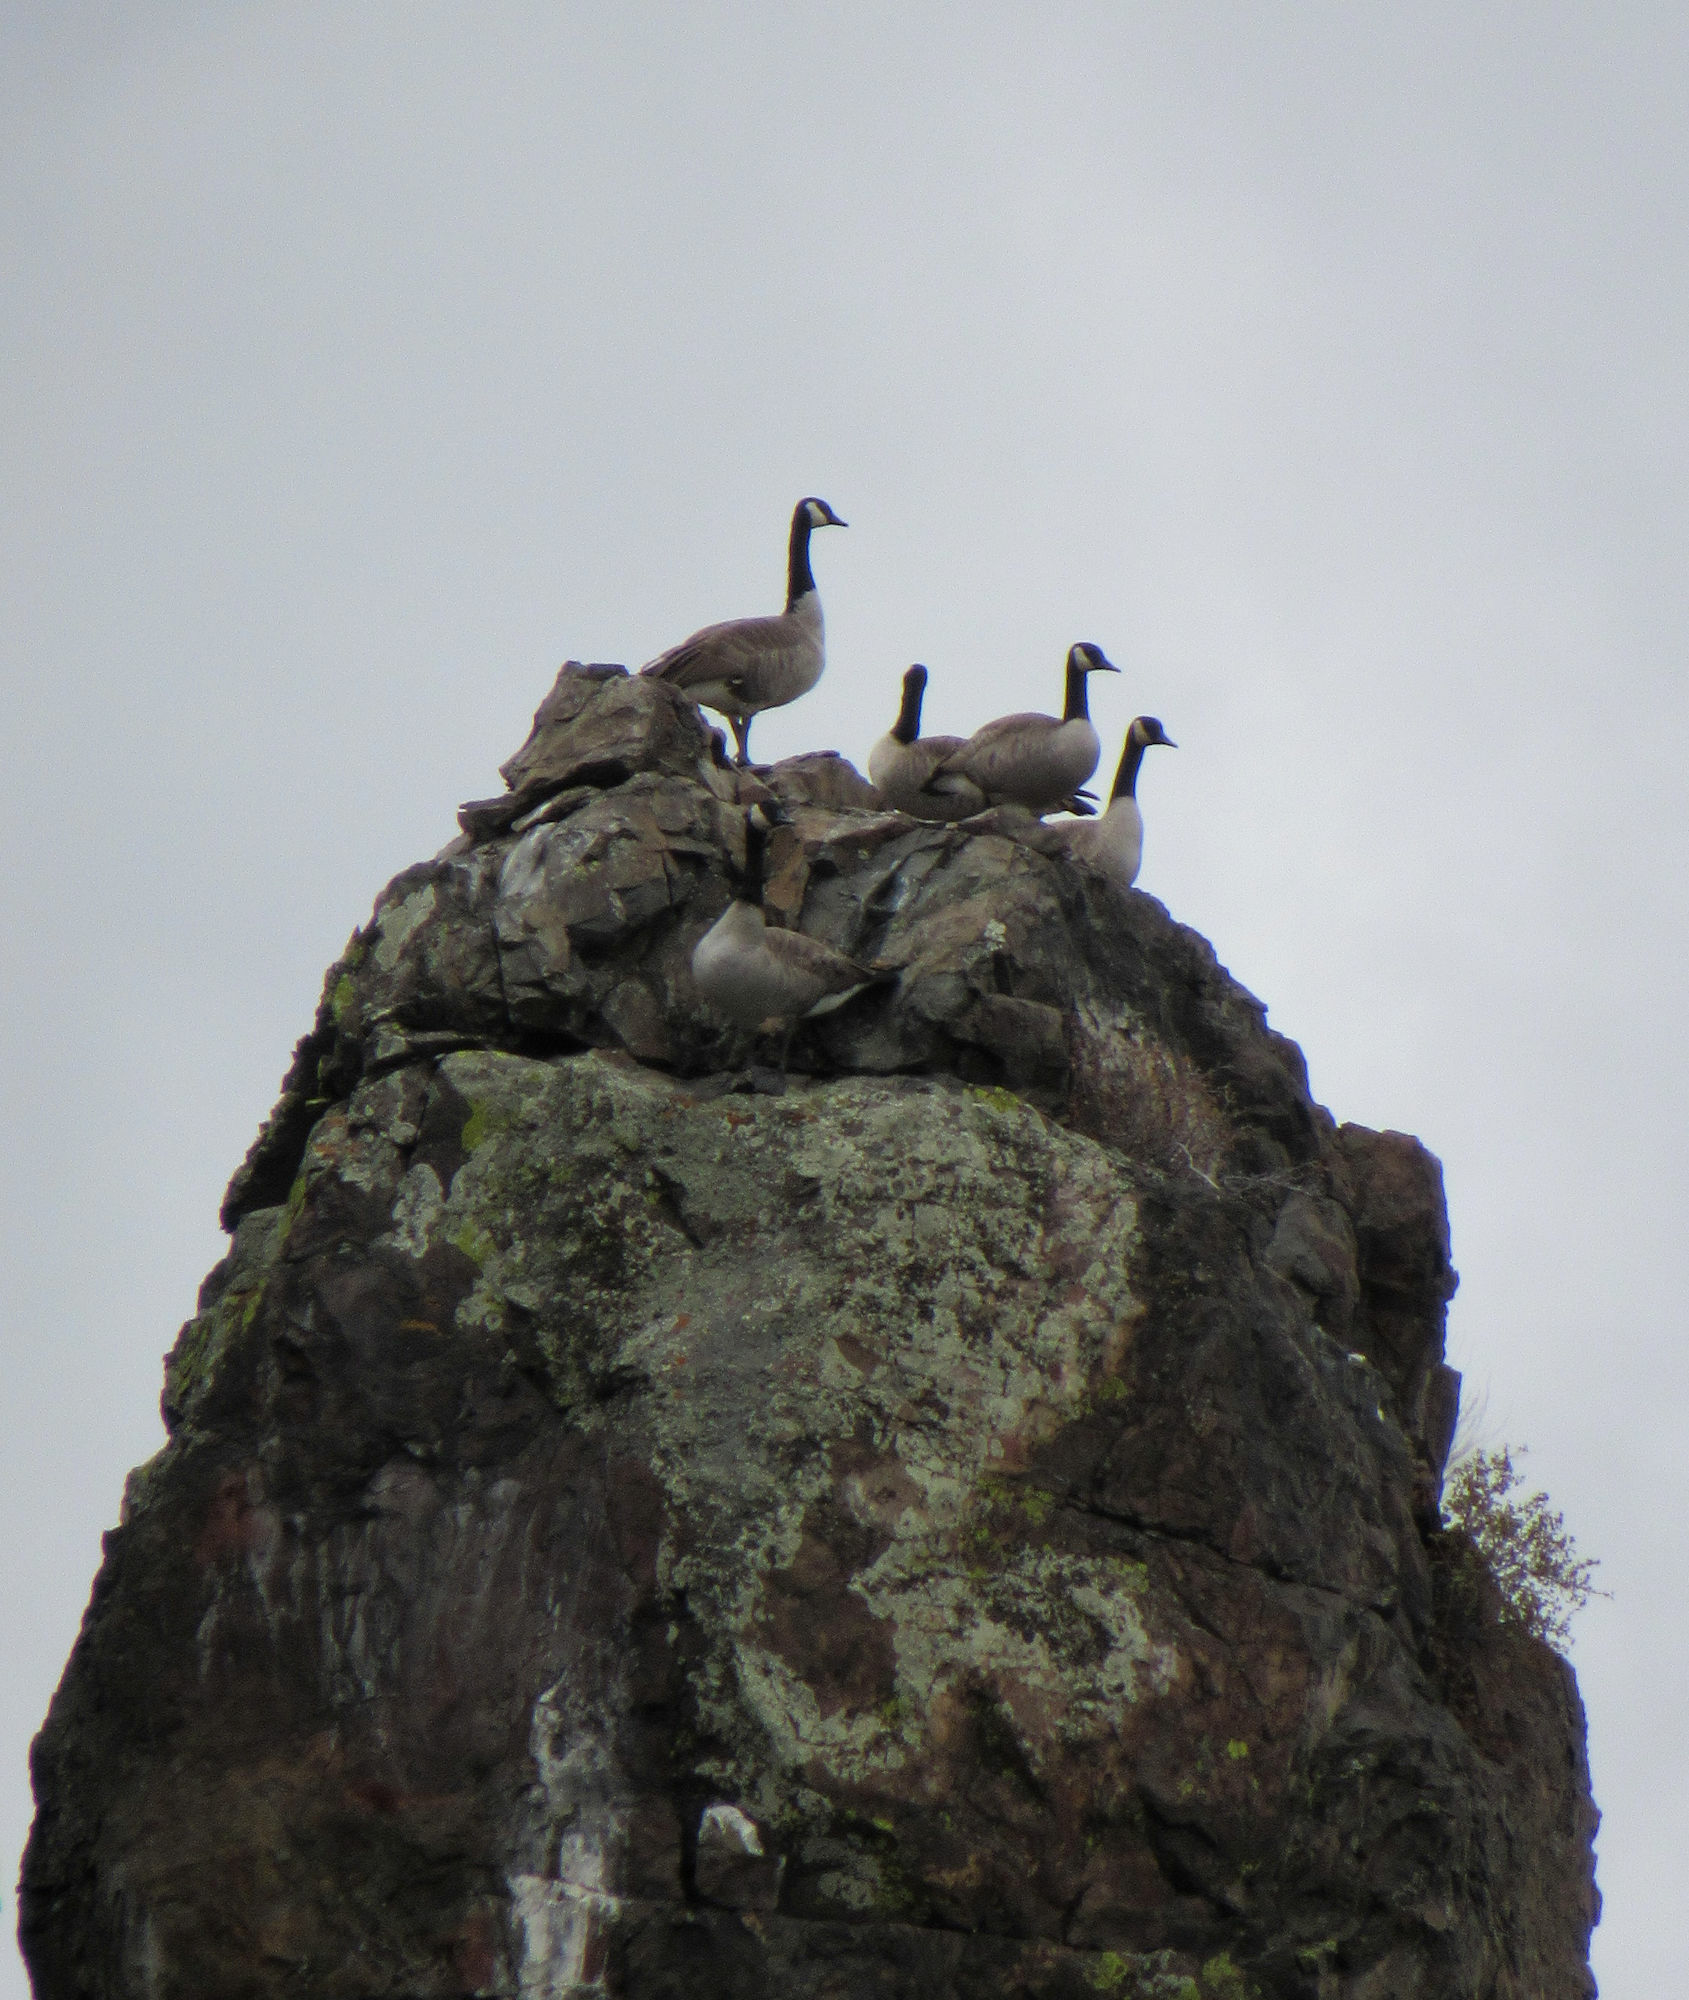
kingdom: Animalia
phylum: Chordata
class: Aves
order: Anseriformes
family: Anatidae
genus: Branta
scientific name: Branta canadensis
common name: Canada goose
